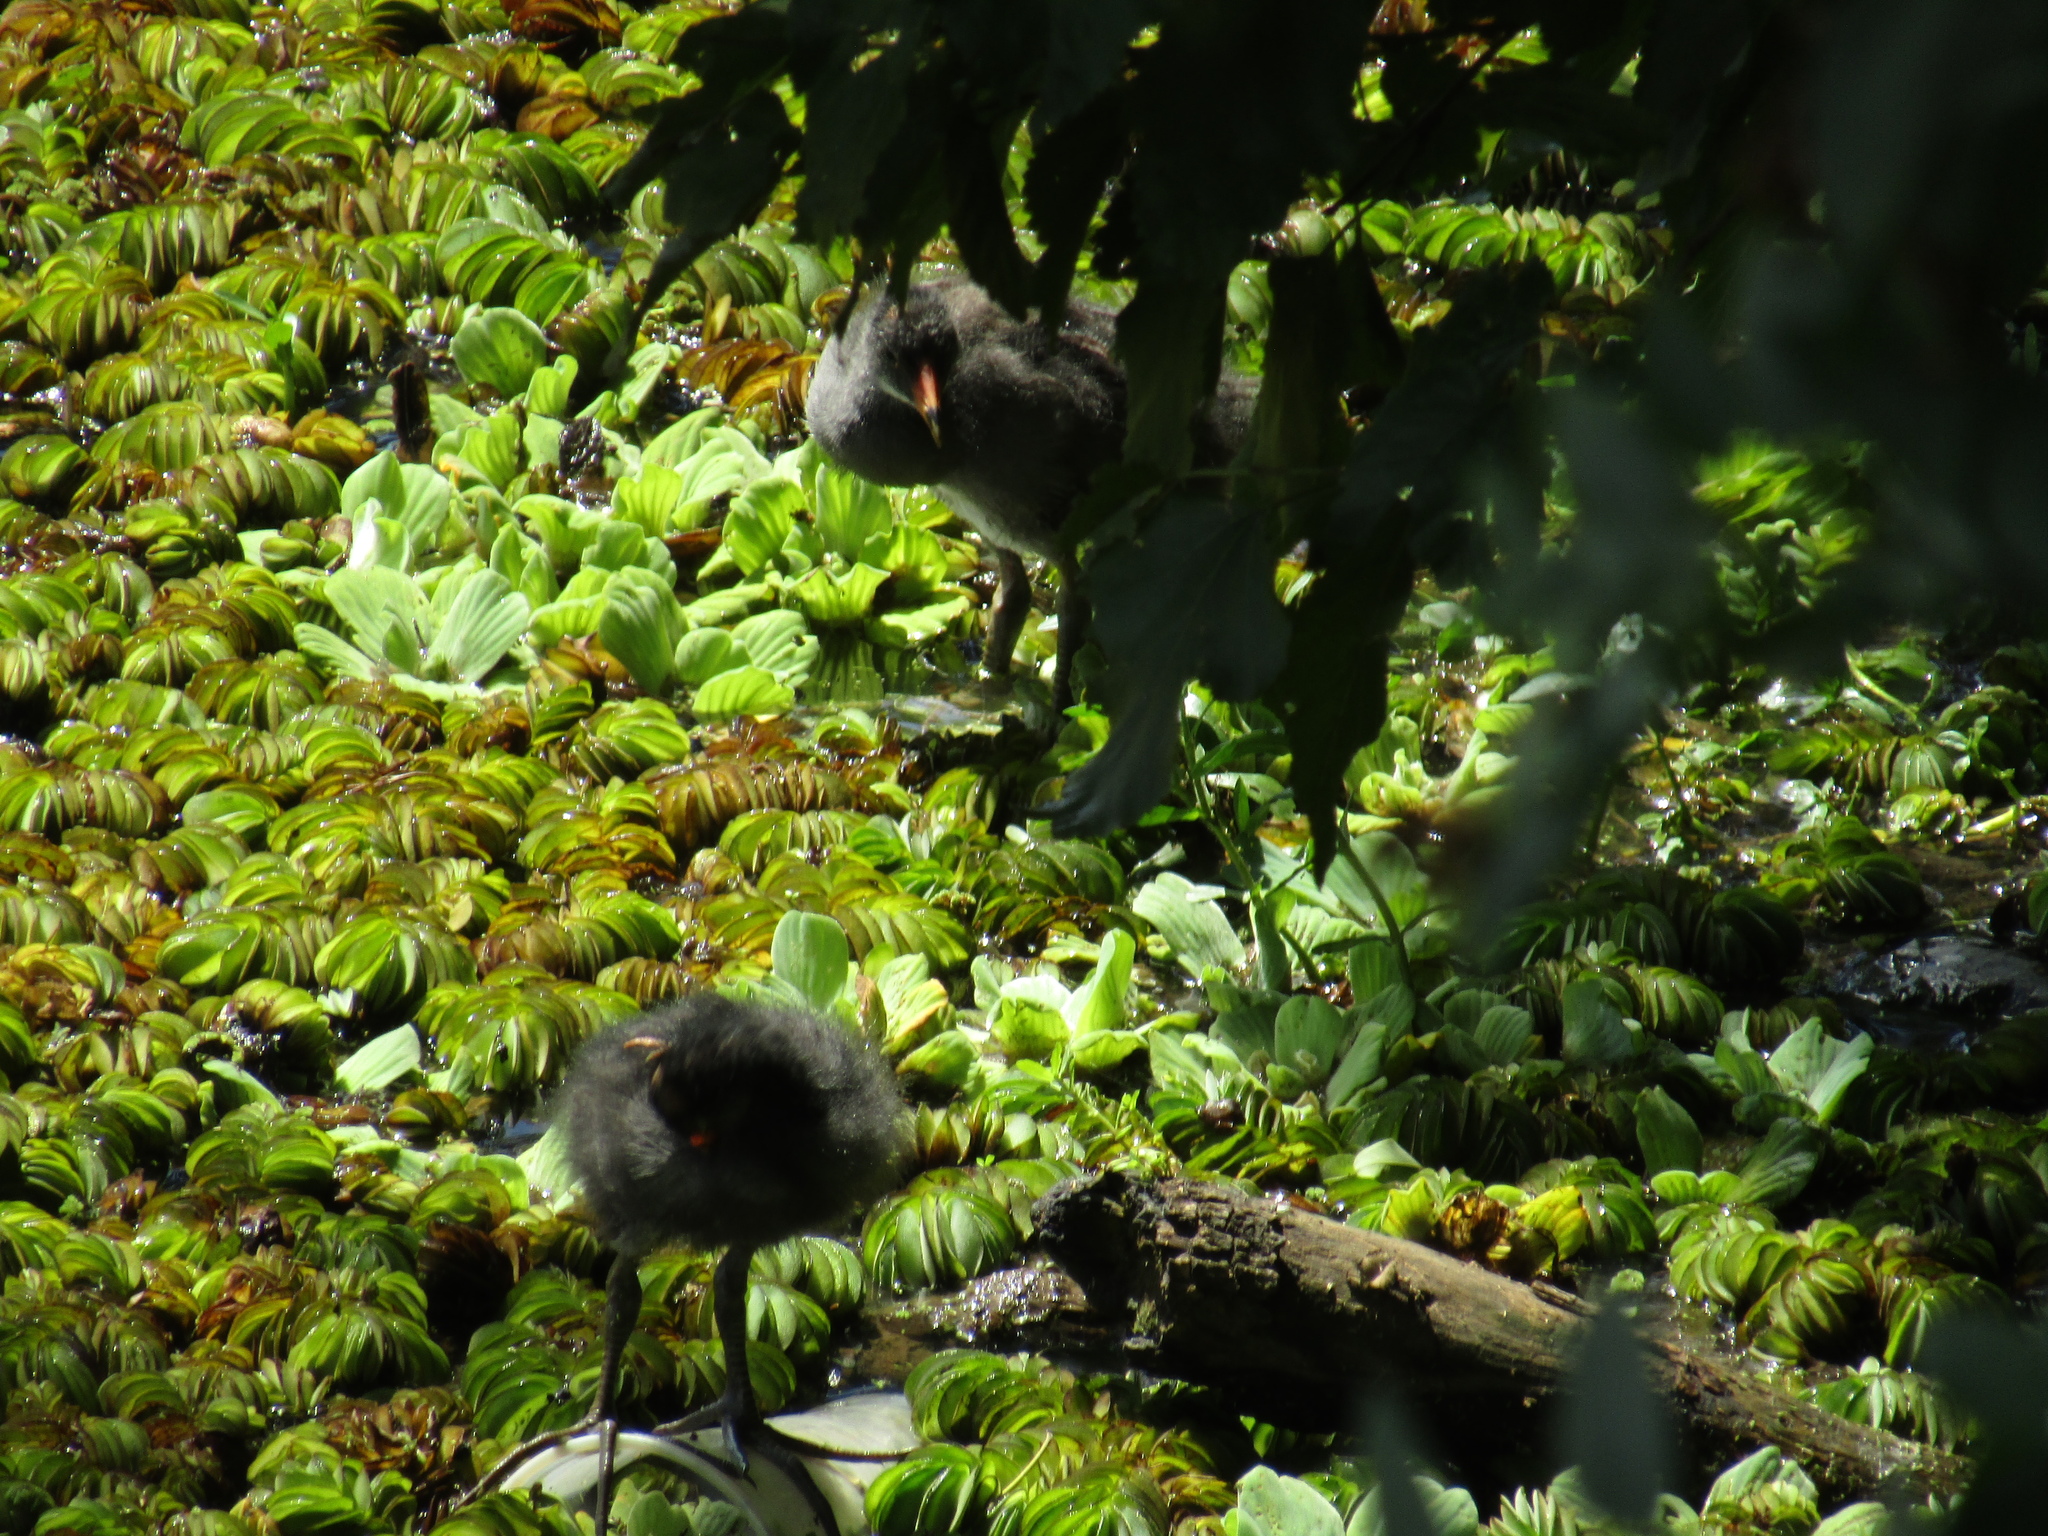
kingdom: Animalia
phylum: Chordata
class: Aves
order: Gruiformes
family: Rallidae
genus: Gallinula
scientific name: Gallinula chloropus
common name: Common moorhen
